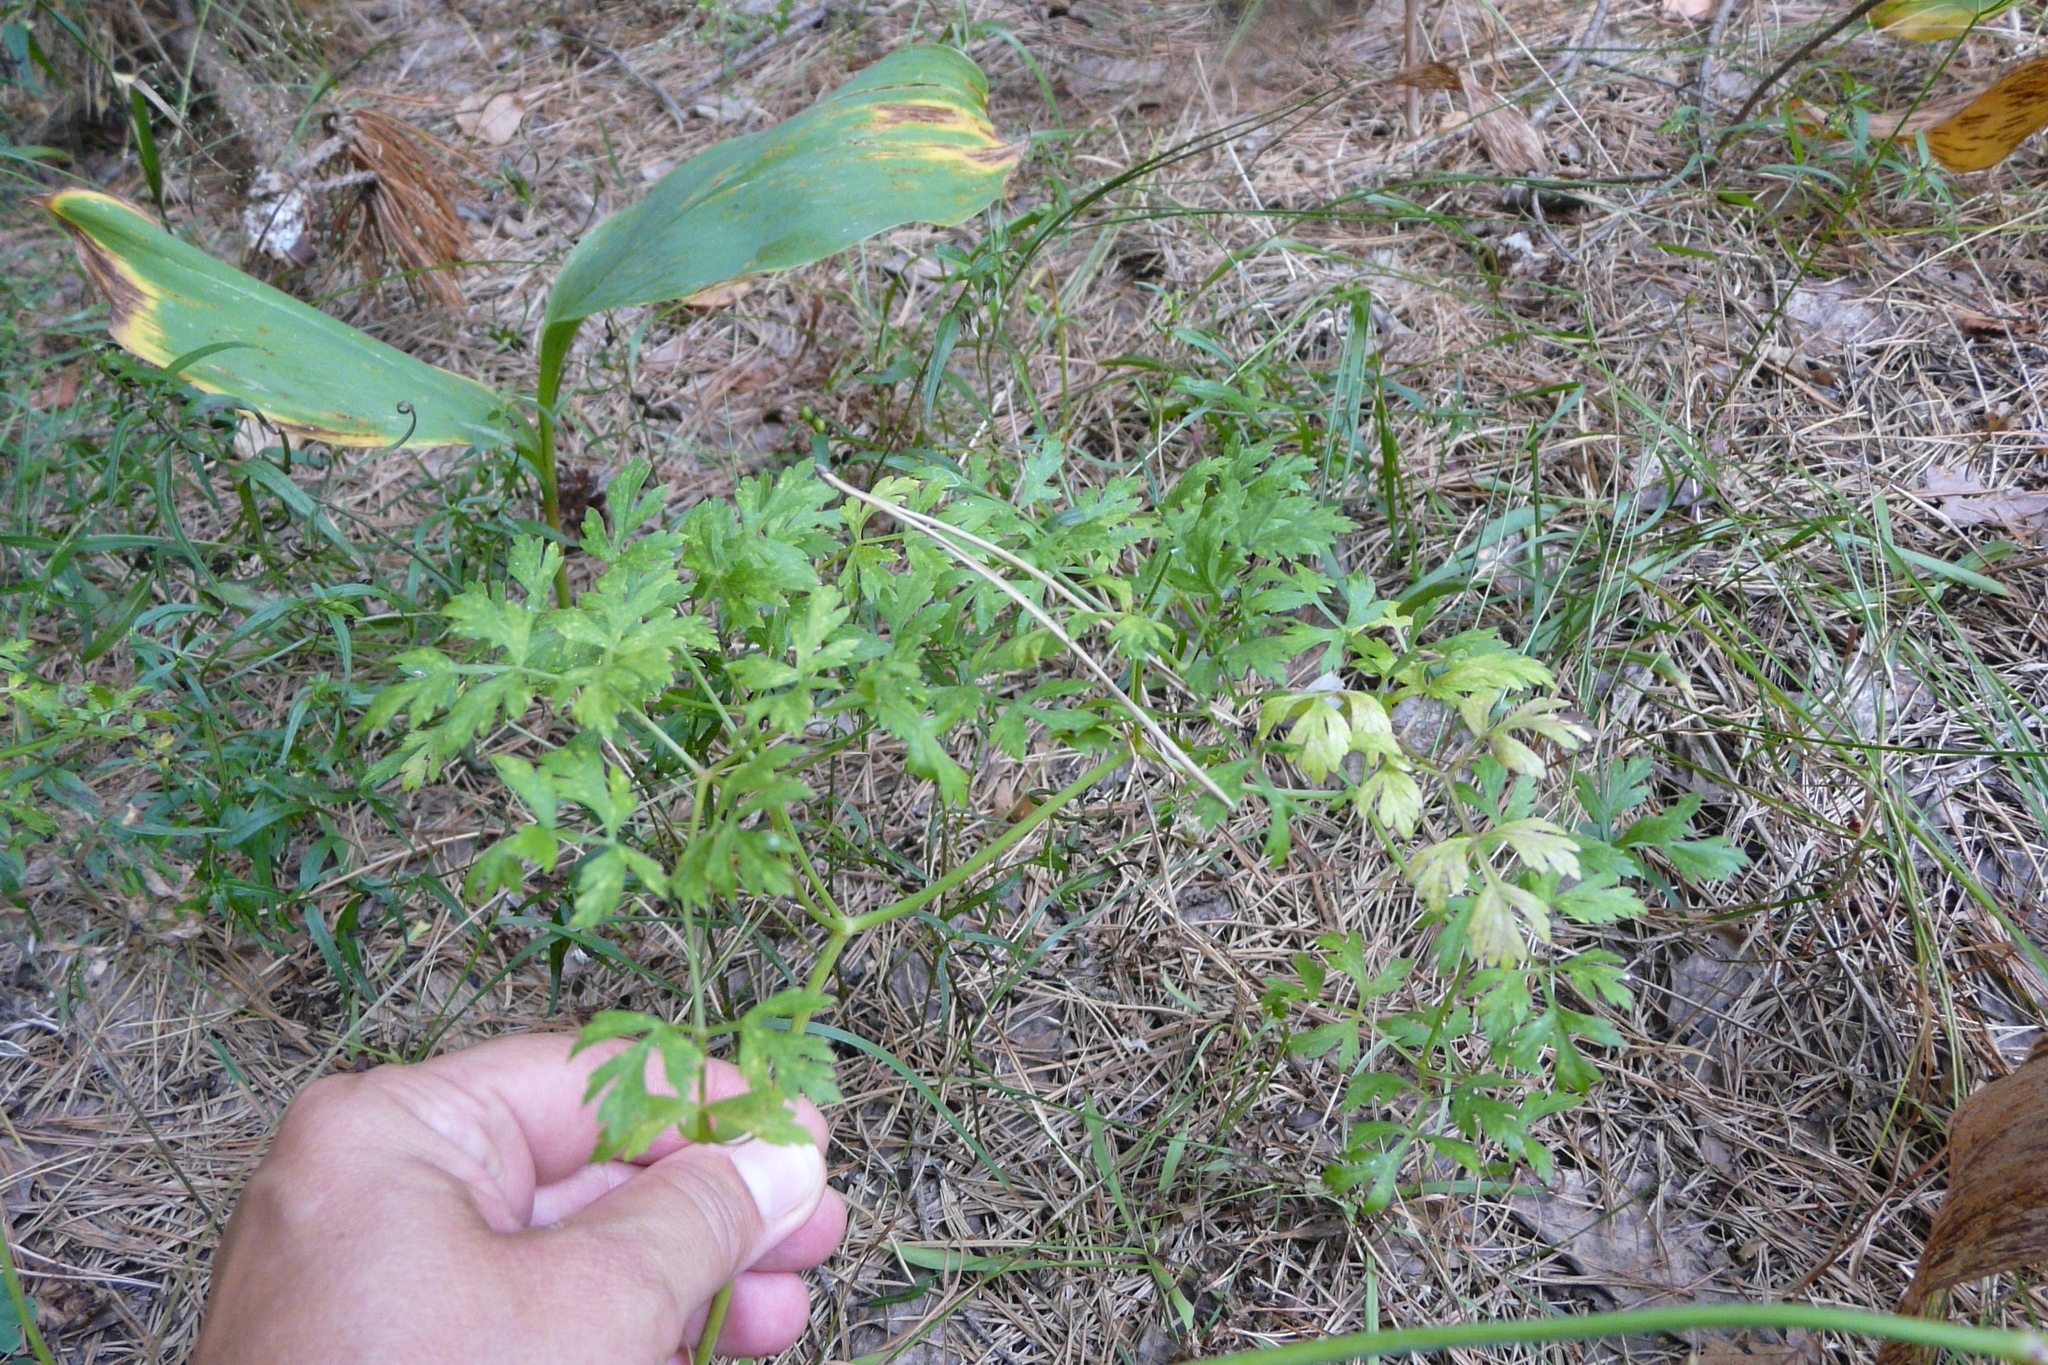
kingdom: Plantae
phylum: Tracheophyta
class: Magnoliopsida
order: Apiales
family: Apiaceae
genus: Oreoselinum
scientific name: Oreoselinum nigrum
